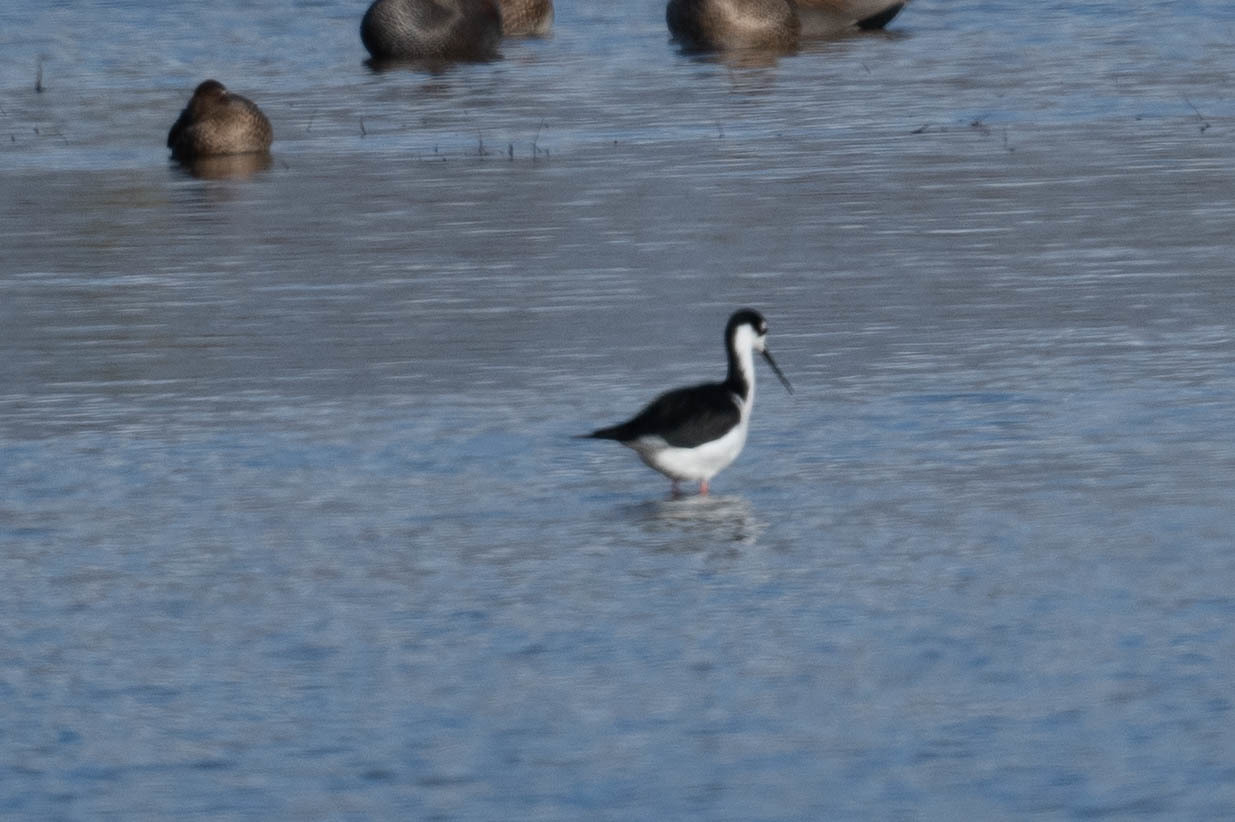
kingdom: Animalia
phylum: Chordata
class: Aves
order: Charadriiformes
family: Recurvirostridae
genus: Himantopus
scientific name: Himantopus mexicanus
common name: Black-necked stilt
